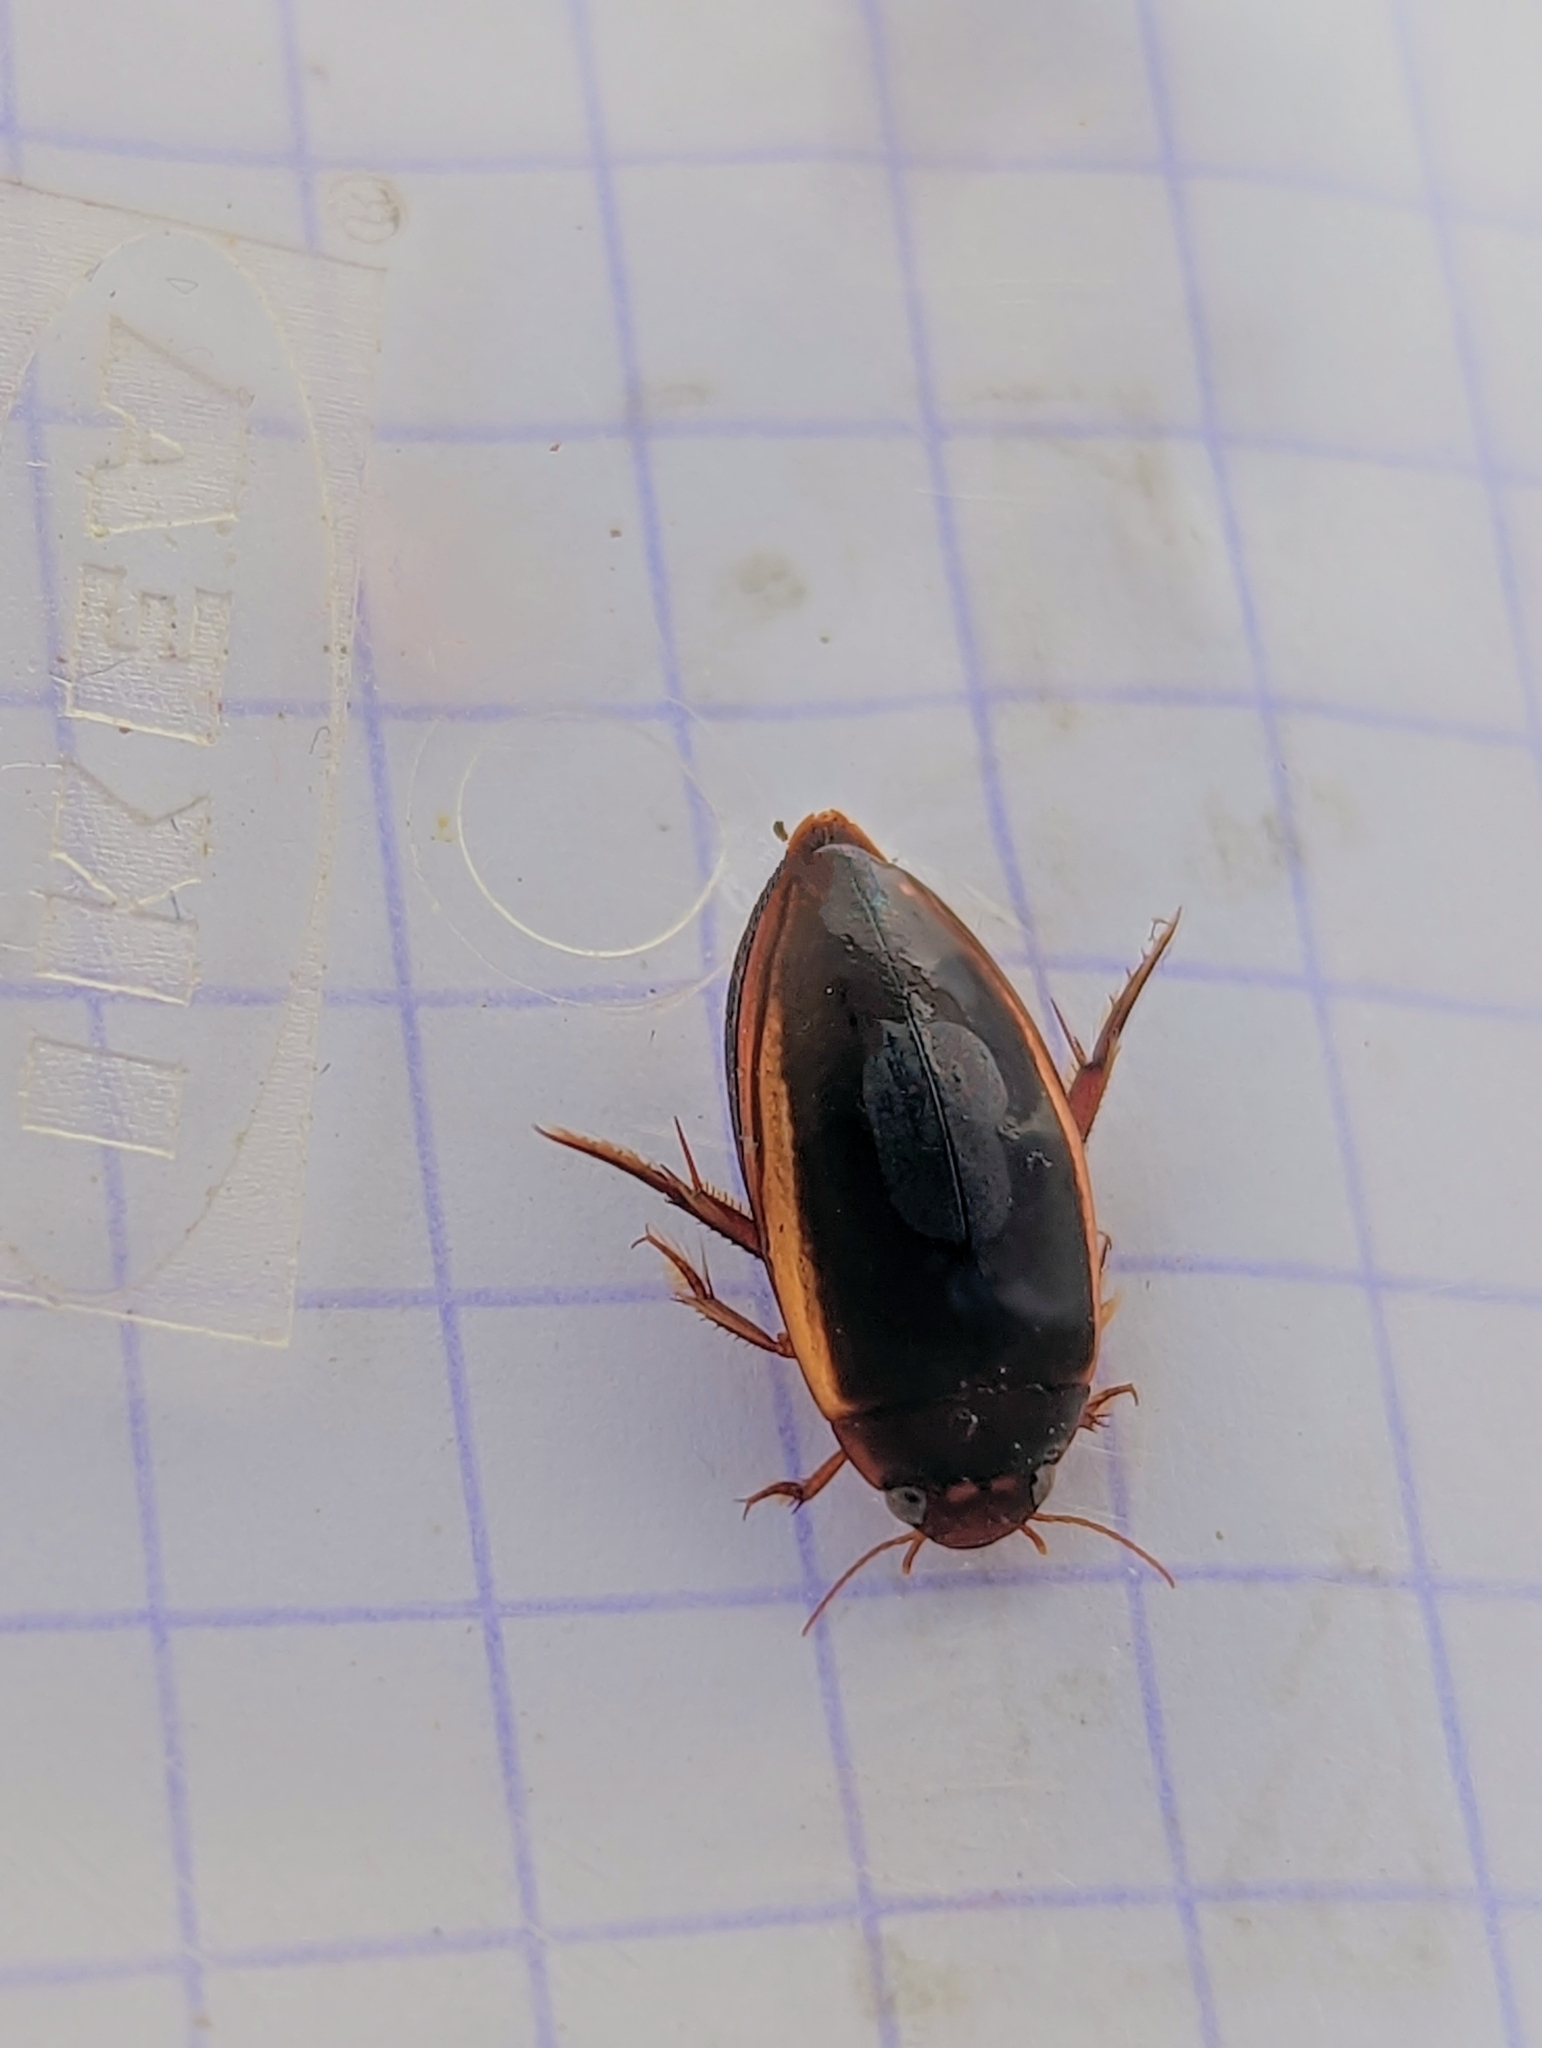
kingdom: Animalia
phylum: Arthropoda
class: Insecta
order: Coleoptera
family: Dytiscidae
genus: Ilybius
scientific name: Ilybius fuliginosus
